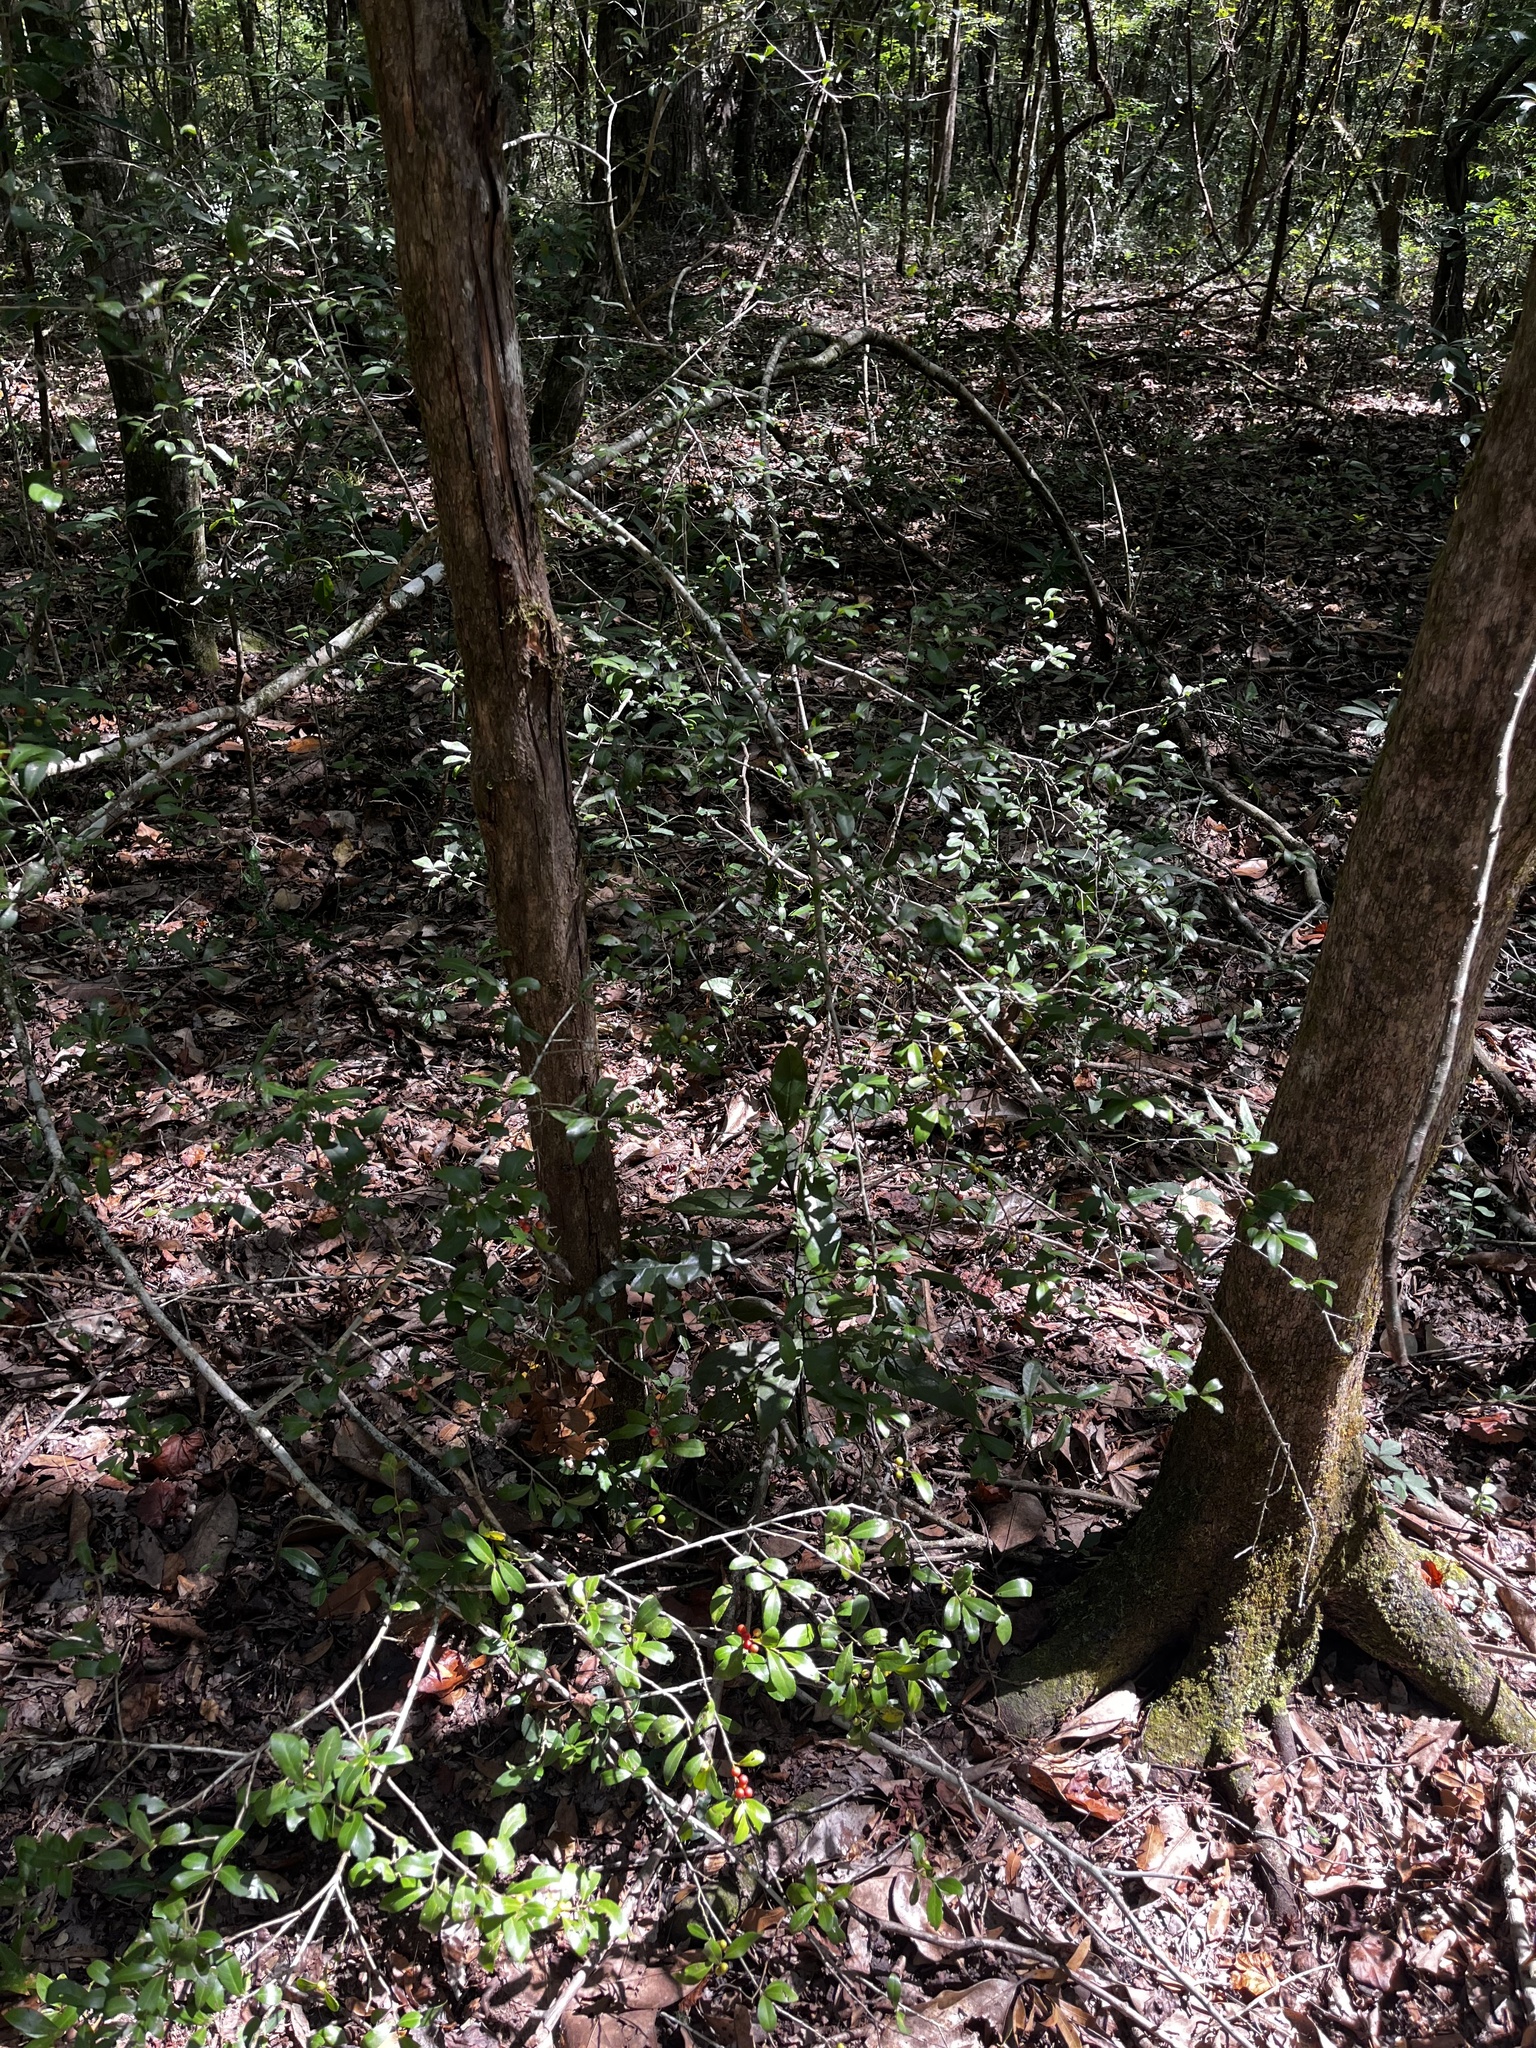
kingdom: Plantae
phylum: Tracheophyta
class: Magnoliopsida
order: Aquifoliales
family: Aquifoliaceae
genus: Ilex
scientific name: Ilex vomitoria
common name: Yaupon holly
